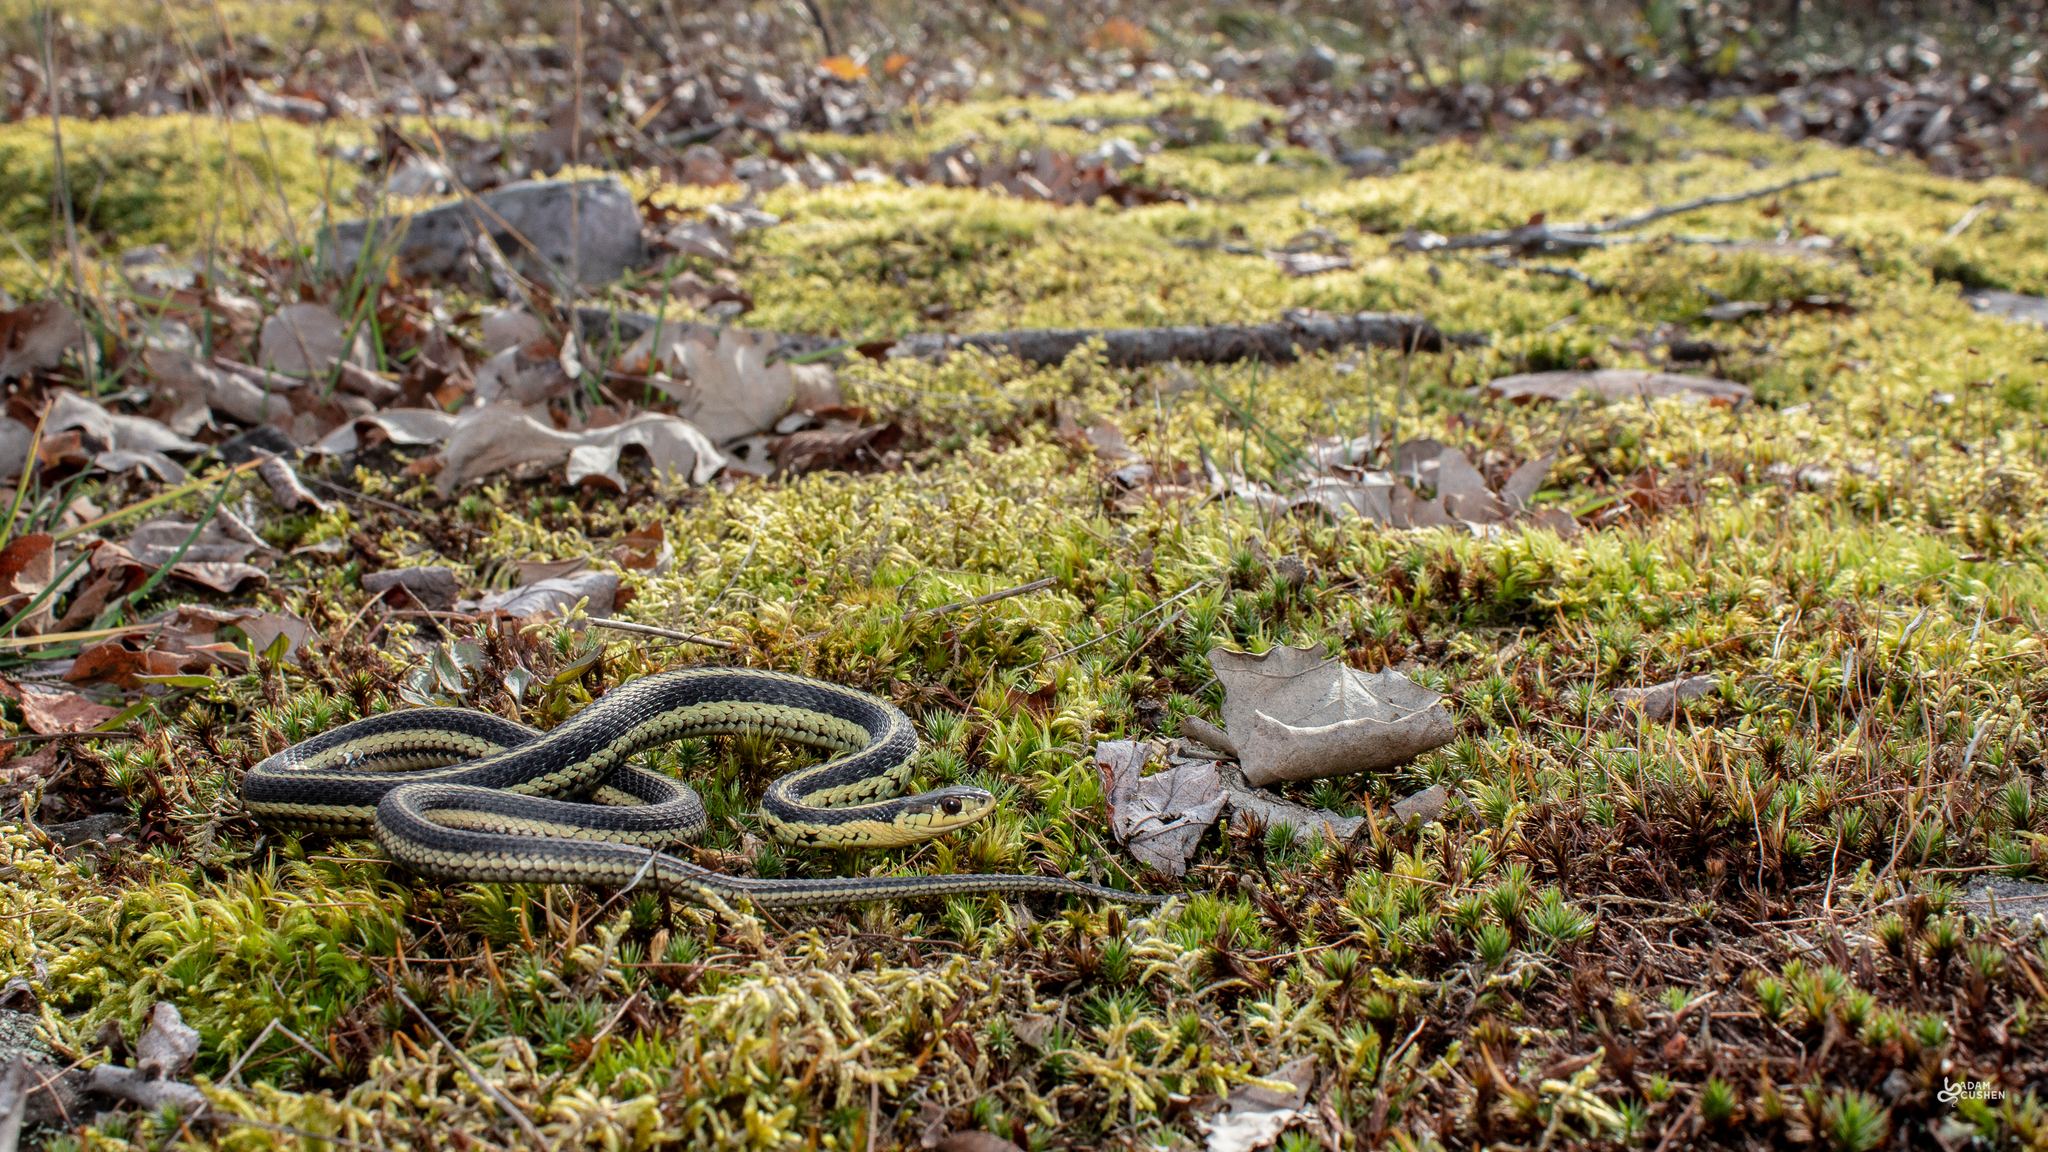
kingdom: Animalia
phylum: Chordata
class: Squamata
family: Colubridae
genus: Thamnophis
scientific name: Thamnophis sirtalis
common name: Common garter snake
